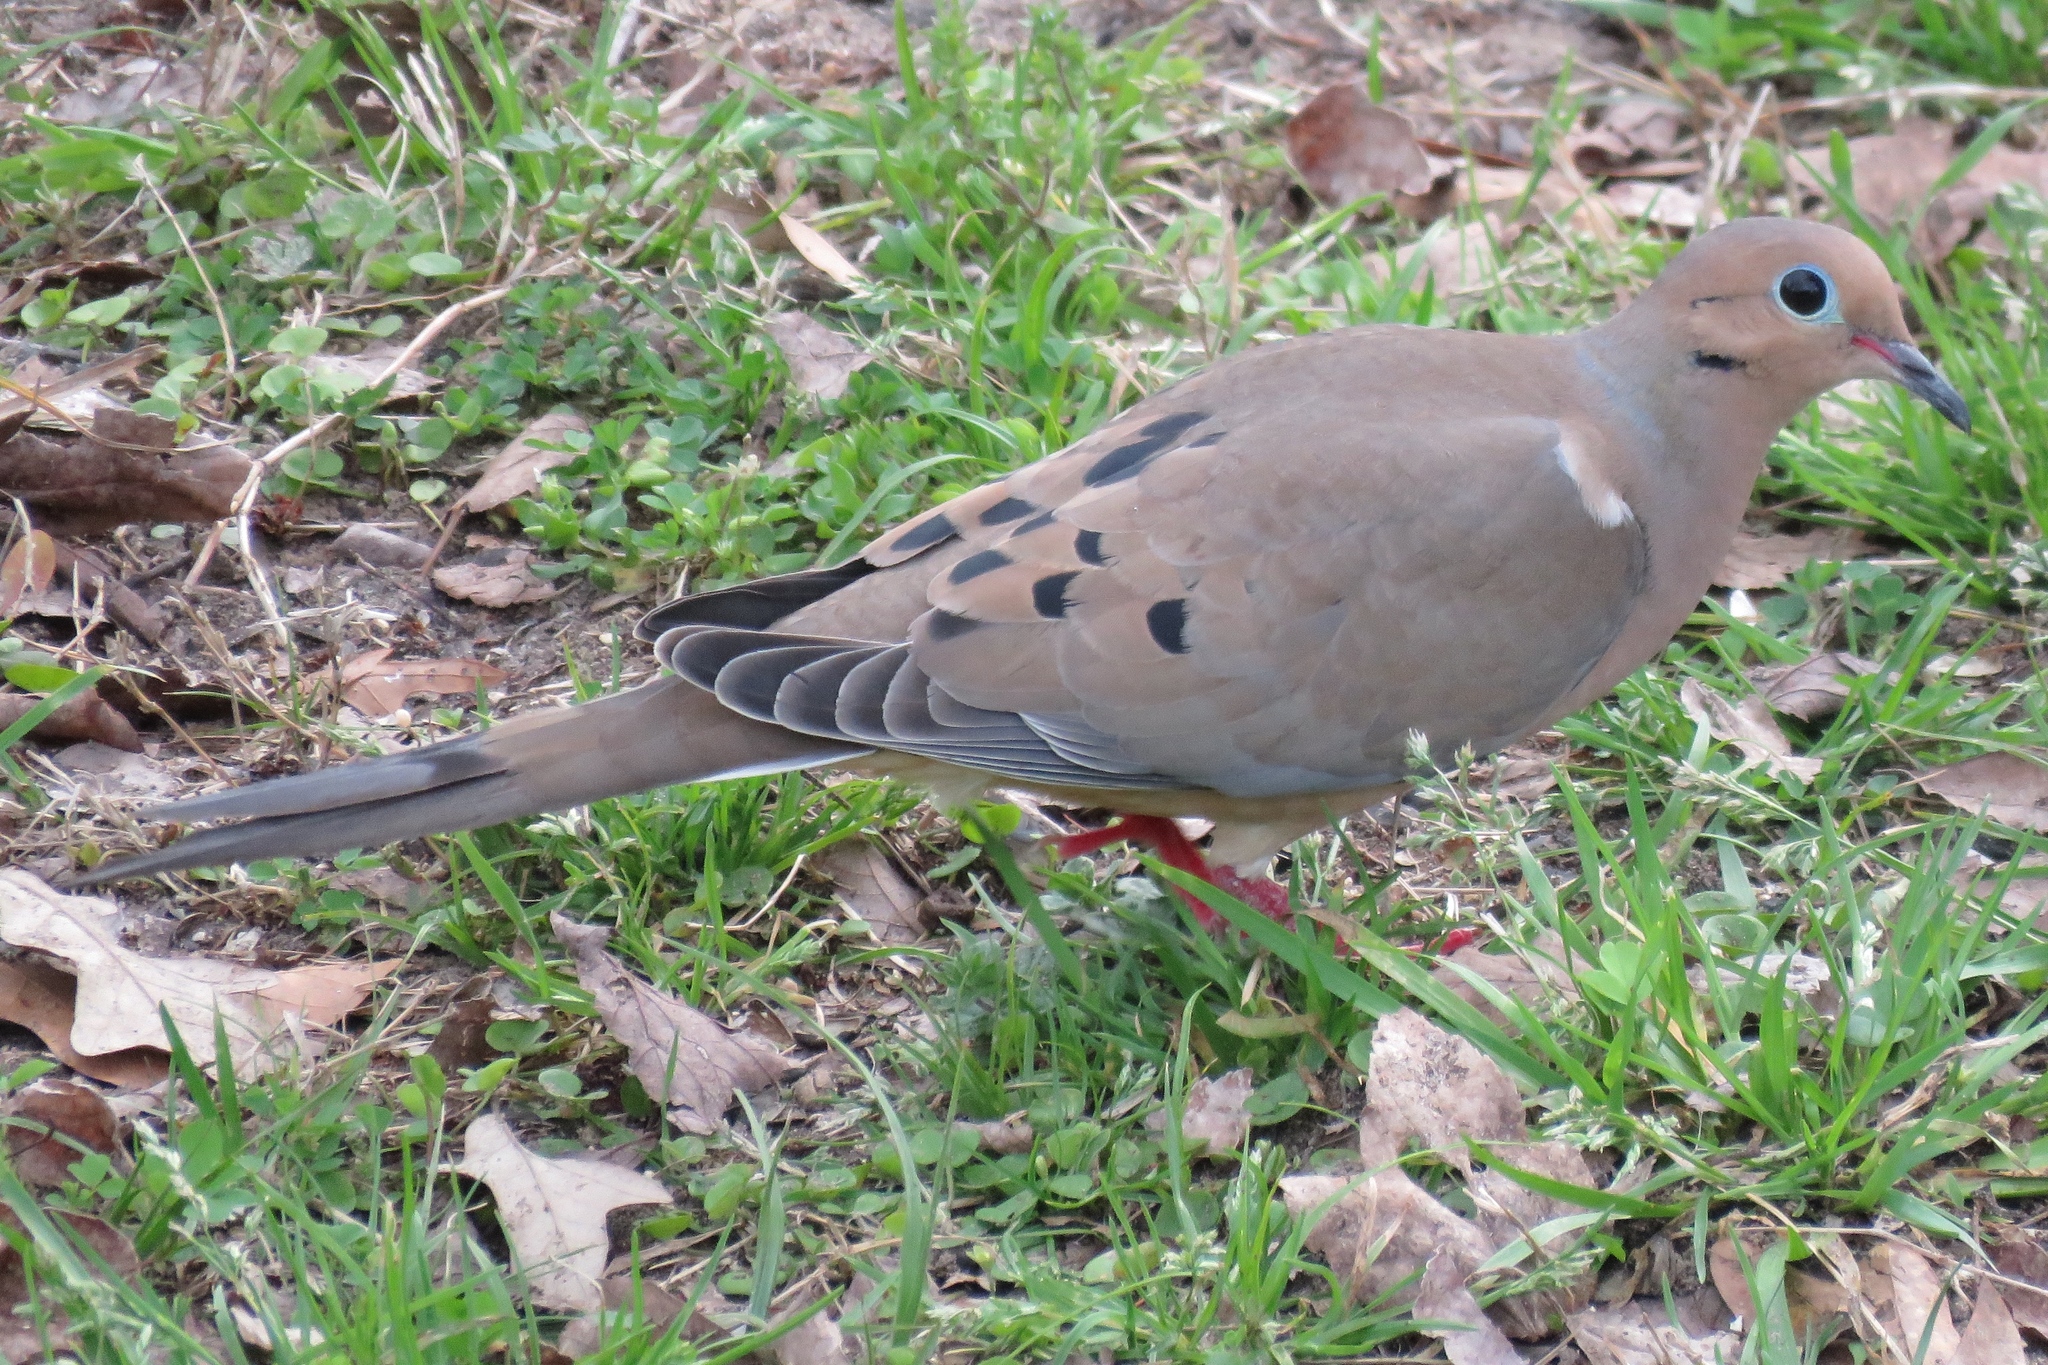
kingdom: Animalia
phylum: Chordata
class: Aves
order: Columbiformes
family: Columbidae
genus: Zenaida
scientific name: Zenaida macroura
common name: Mourning dove
